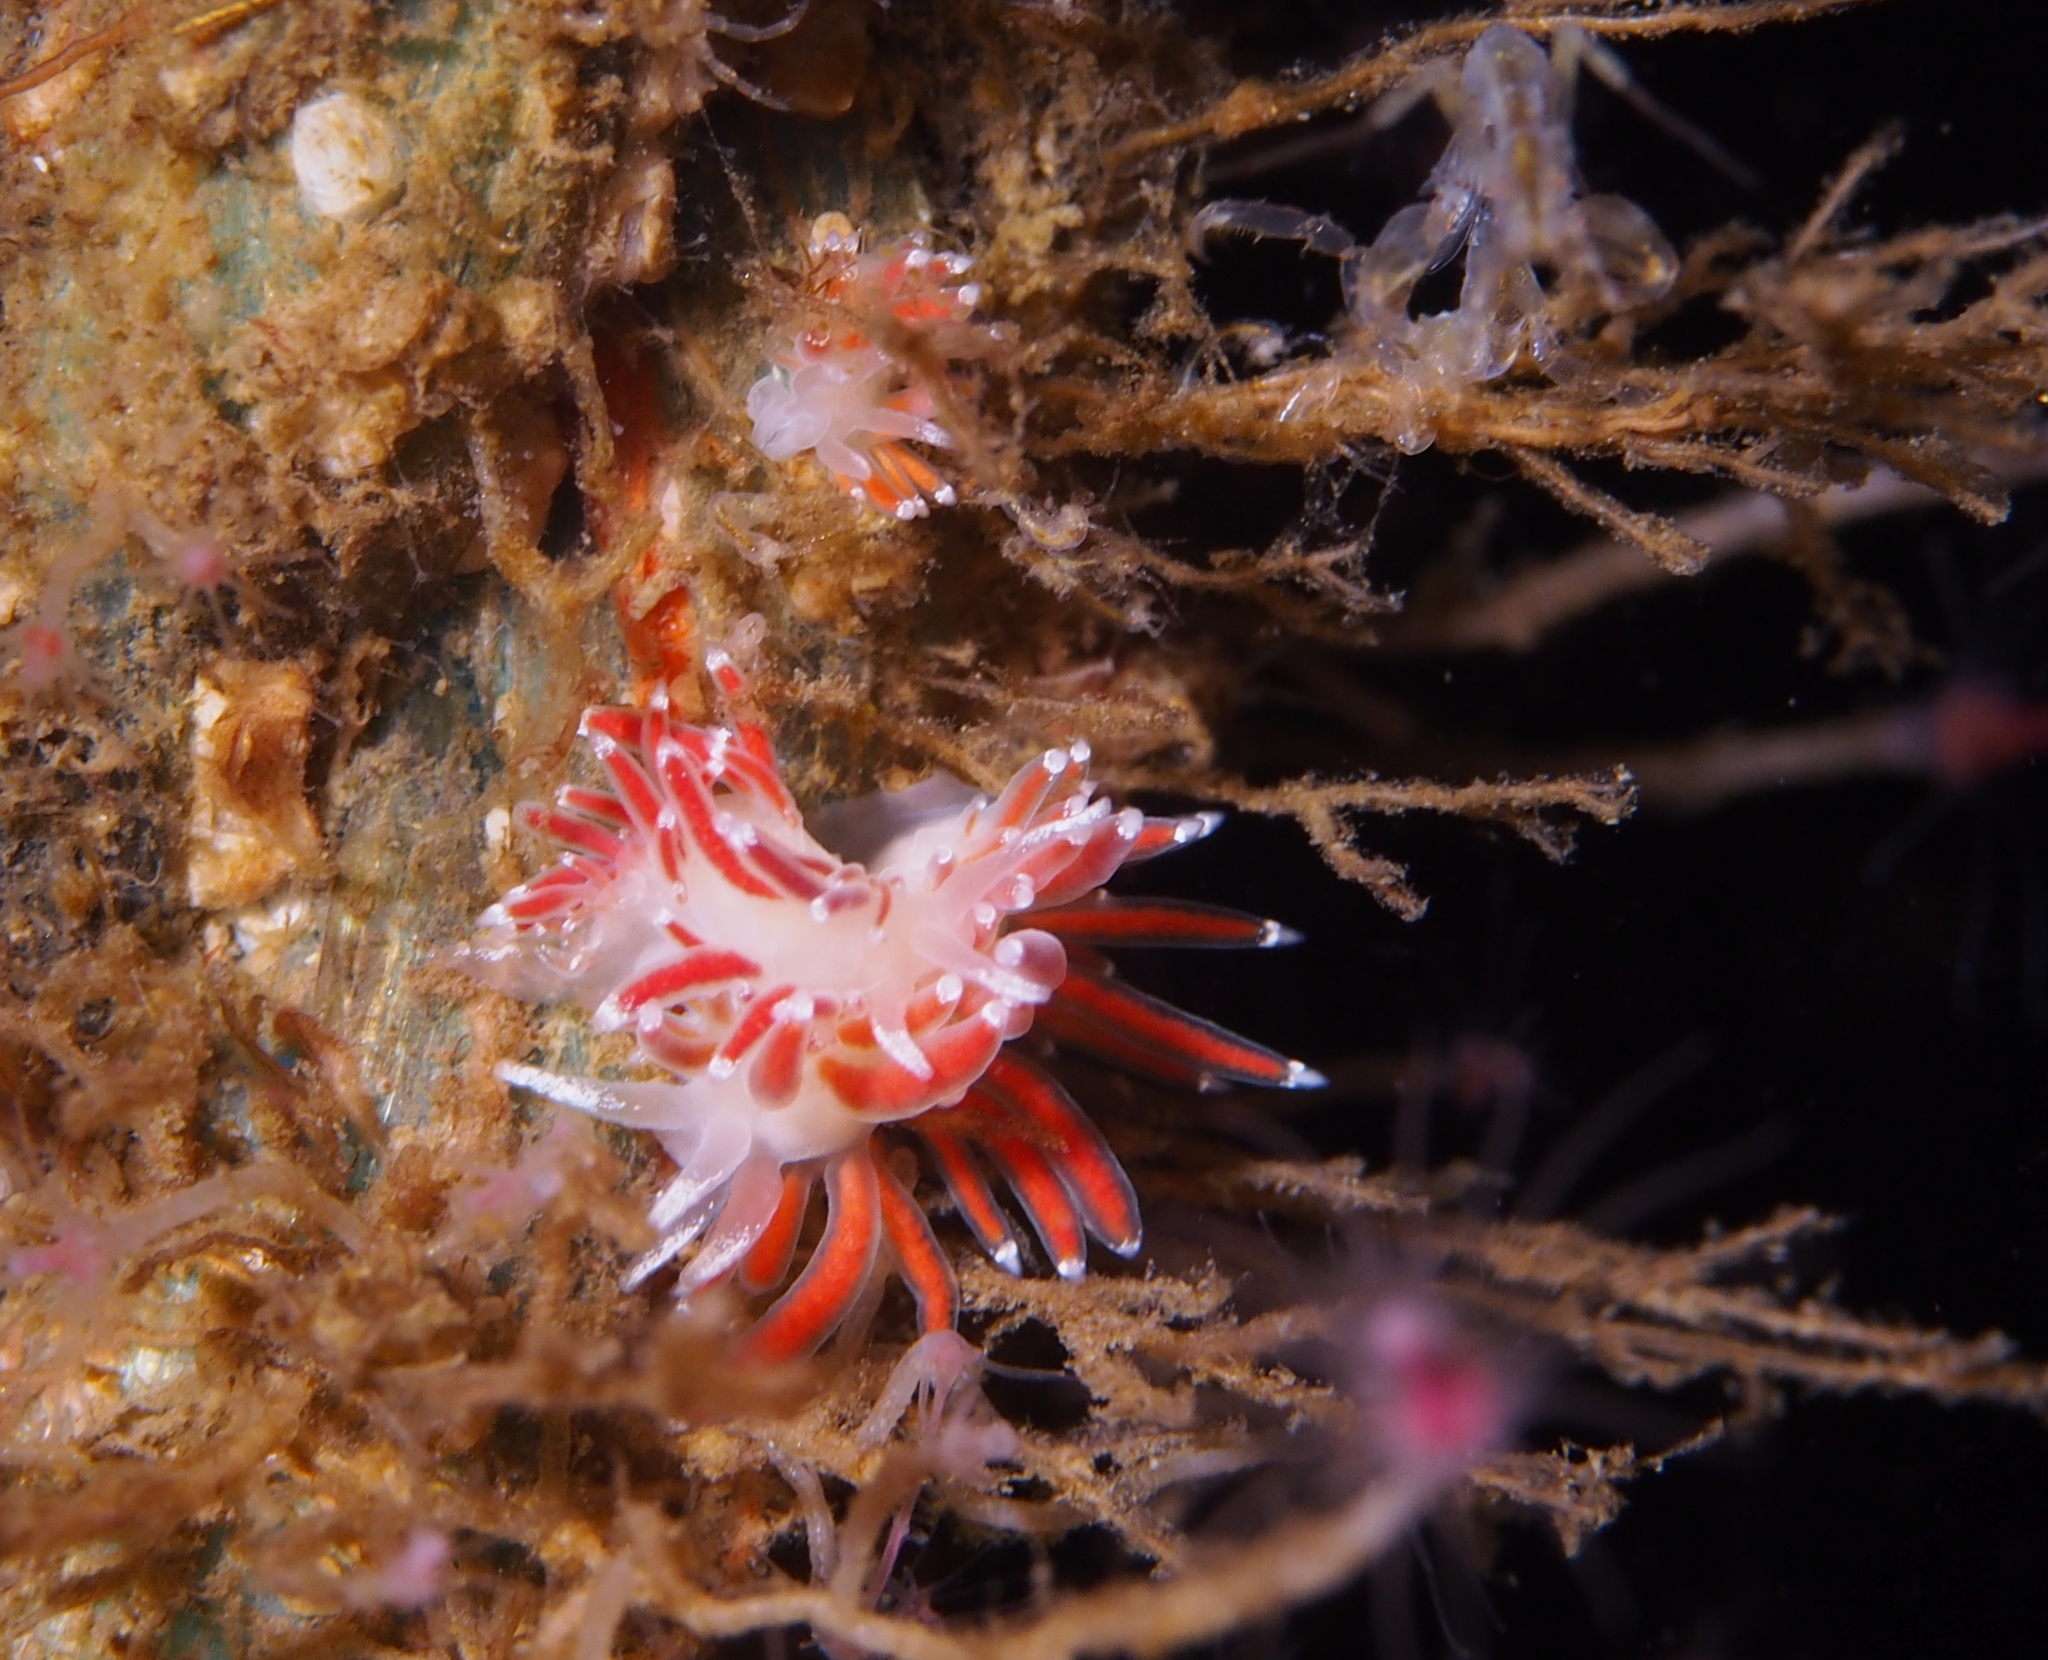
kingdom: Animalia
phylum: Mollusca
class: Gastropoda
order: Nudibranchia
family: Coryphellidae
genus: Coryphella
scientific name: Coryphella gracilis
